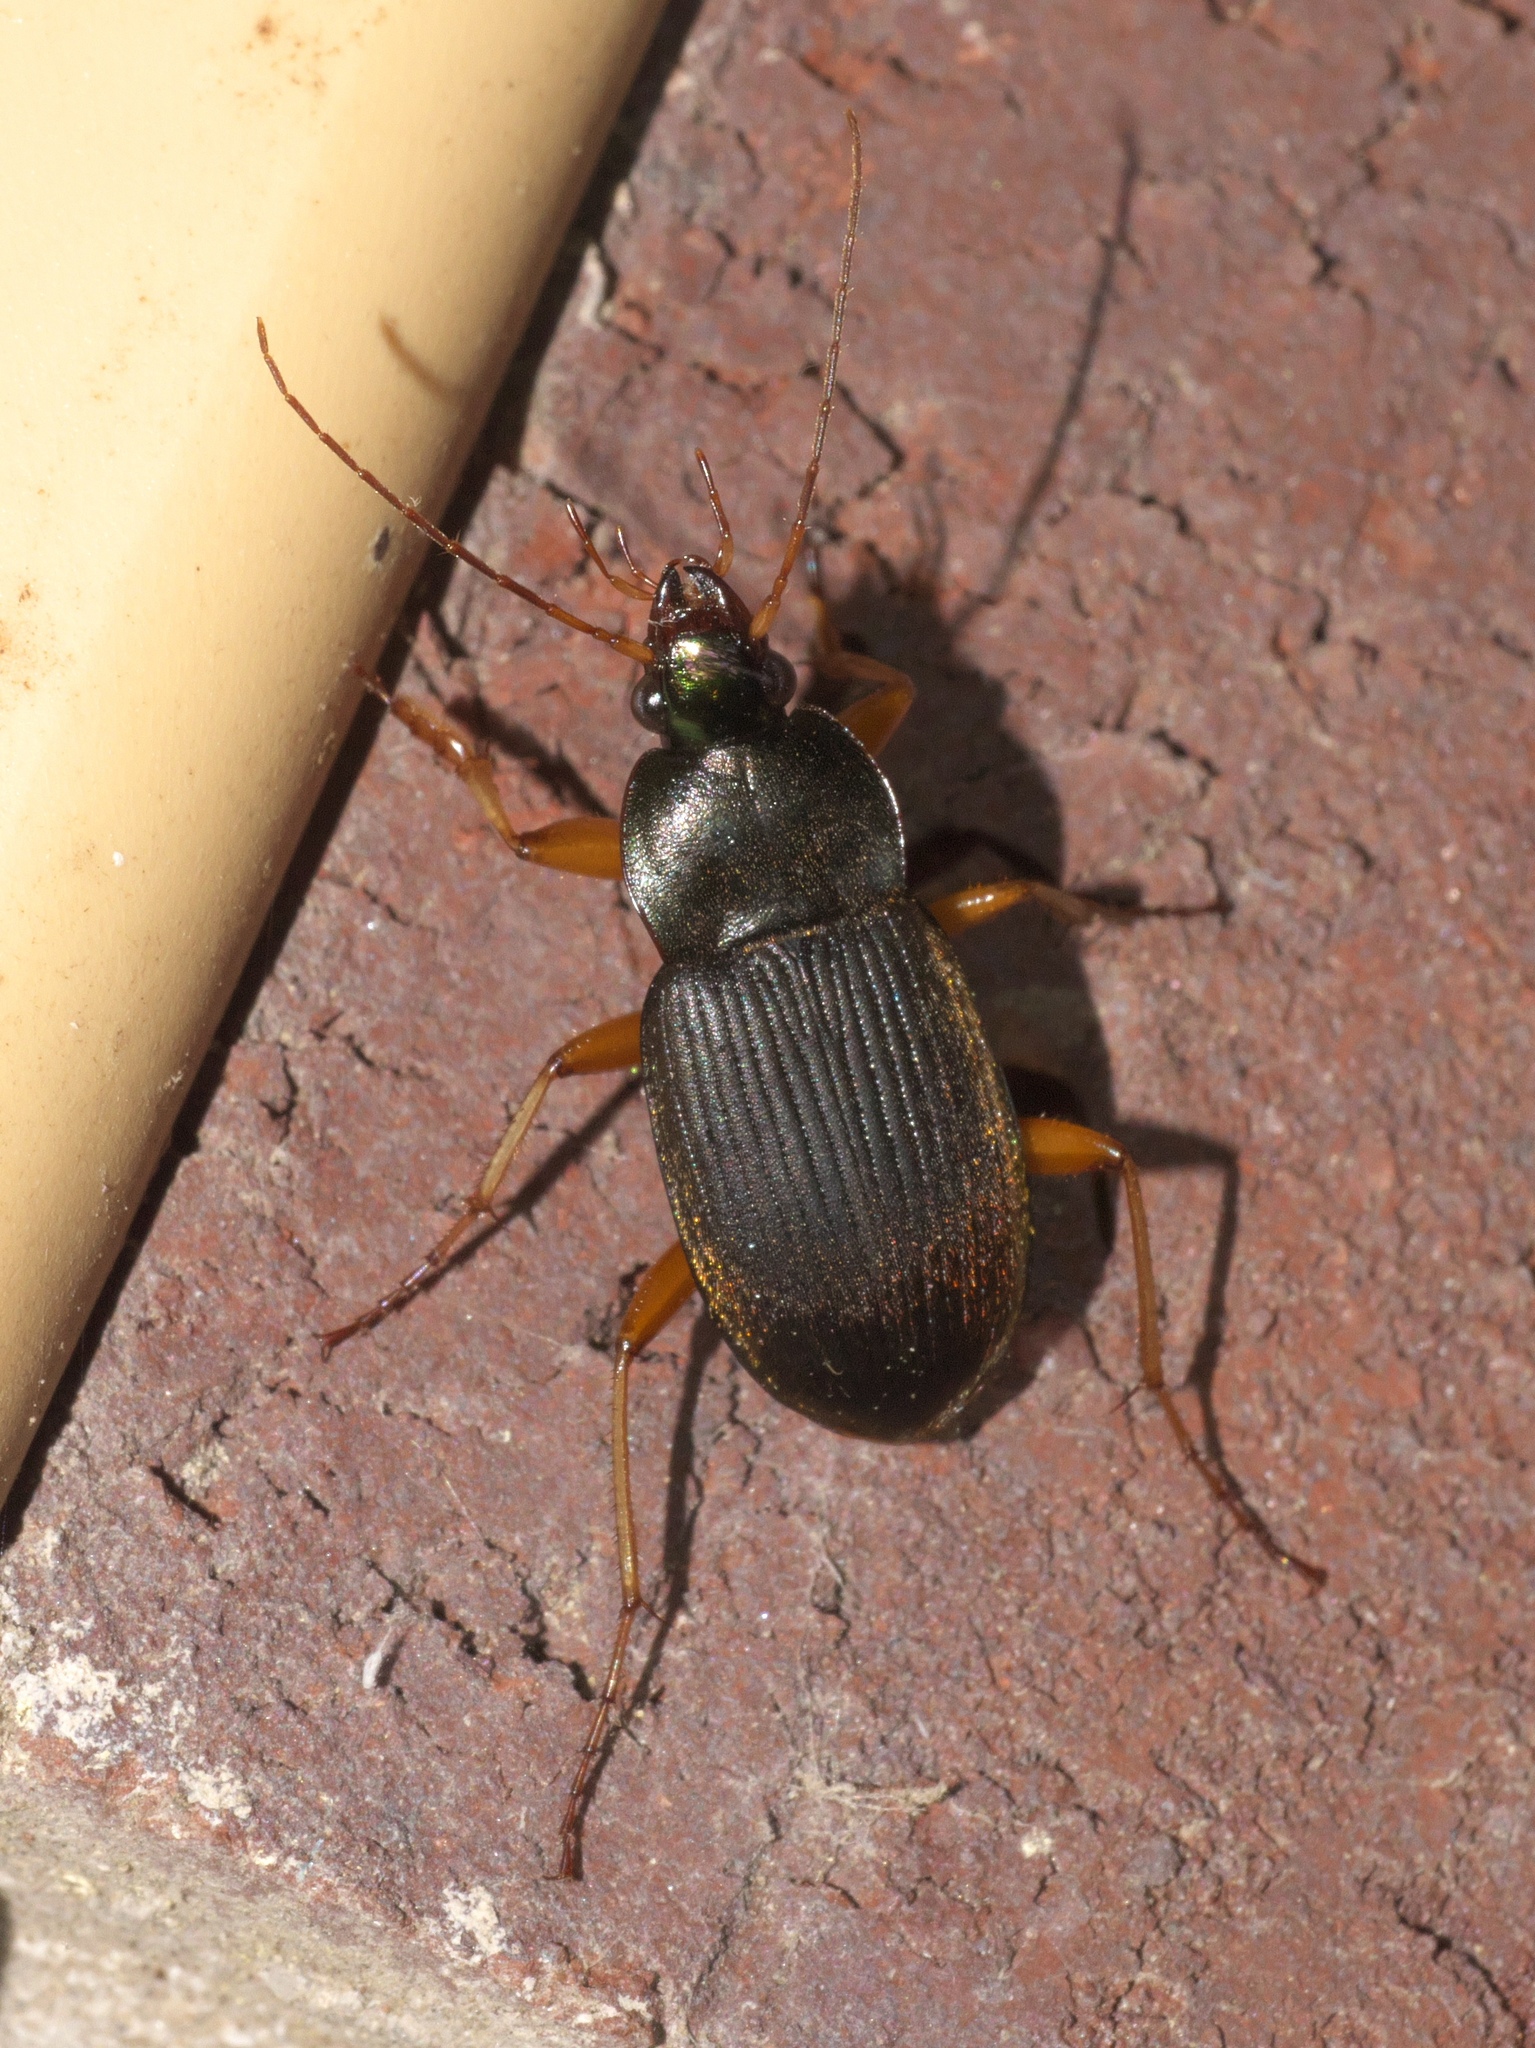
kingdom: Animalia
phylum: Arthropoda
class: Insecta
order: Coleoptera
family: Carabidae
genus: Chlaenius
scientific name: Chlaenius impunctifrons
